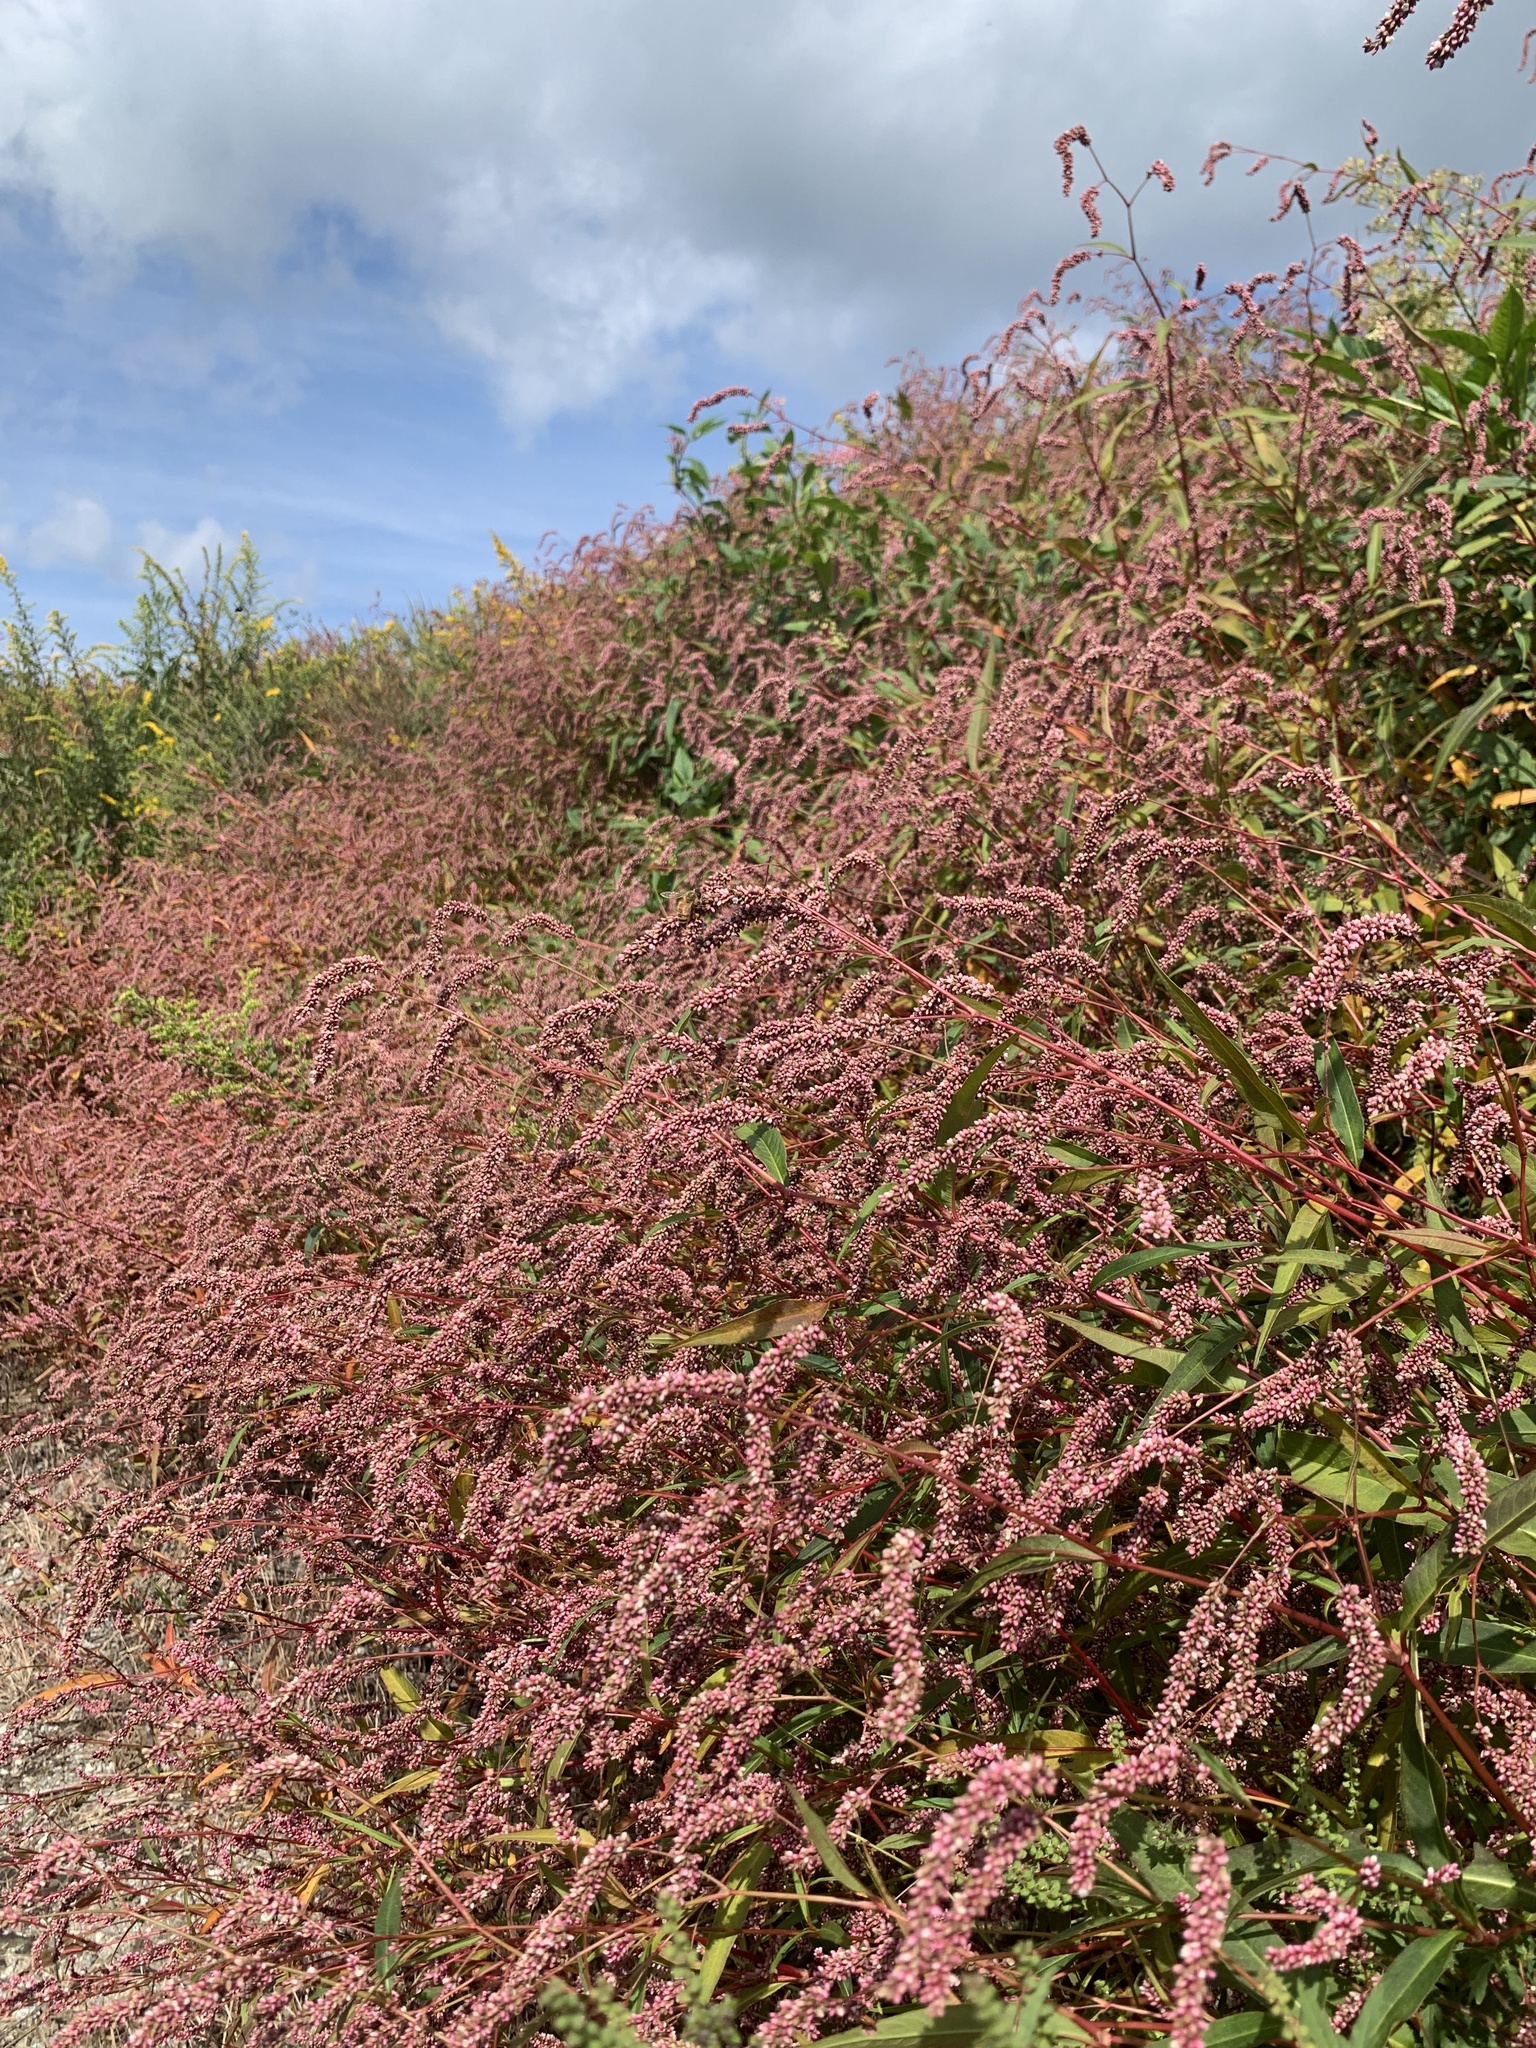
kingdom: Plantae
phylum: Tracheophyta
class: Magnoliopsida
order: Caryophyllales
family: Polygonaceae
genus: Persicaria
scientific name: Persicaria lapathifolia
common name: Curlytop knotweed
